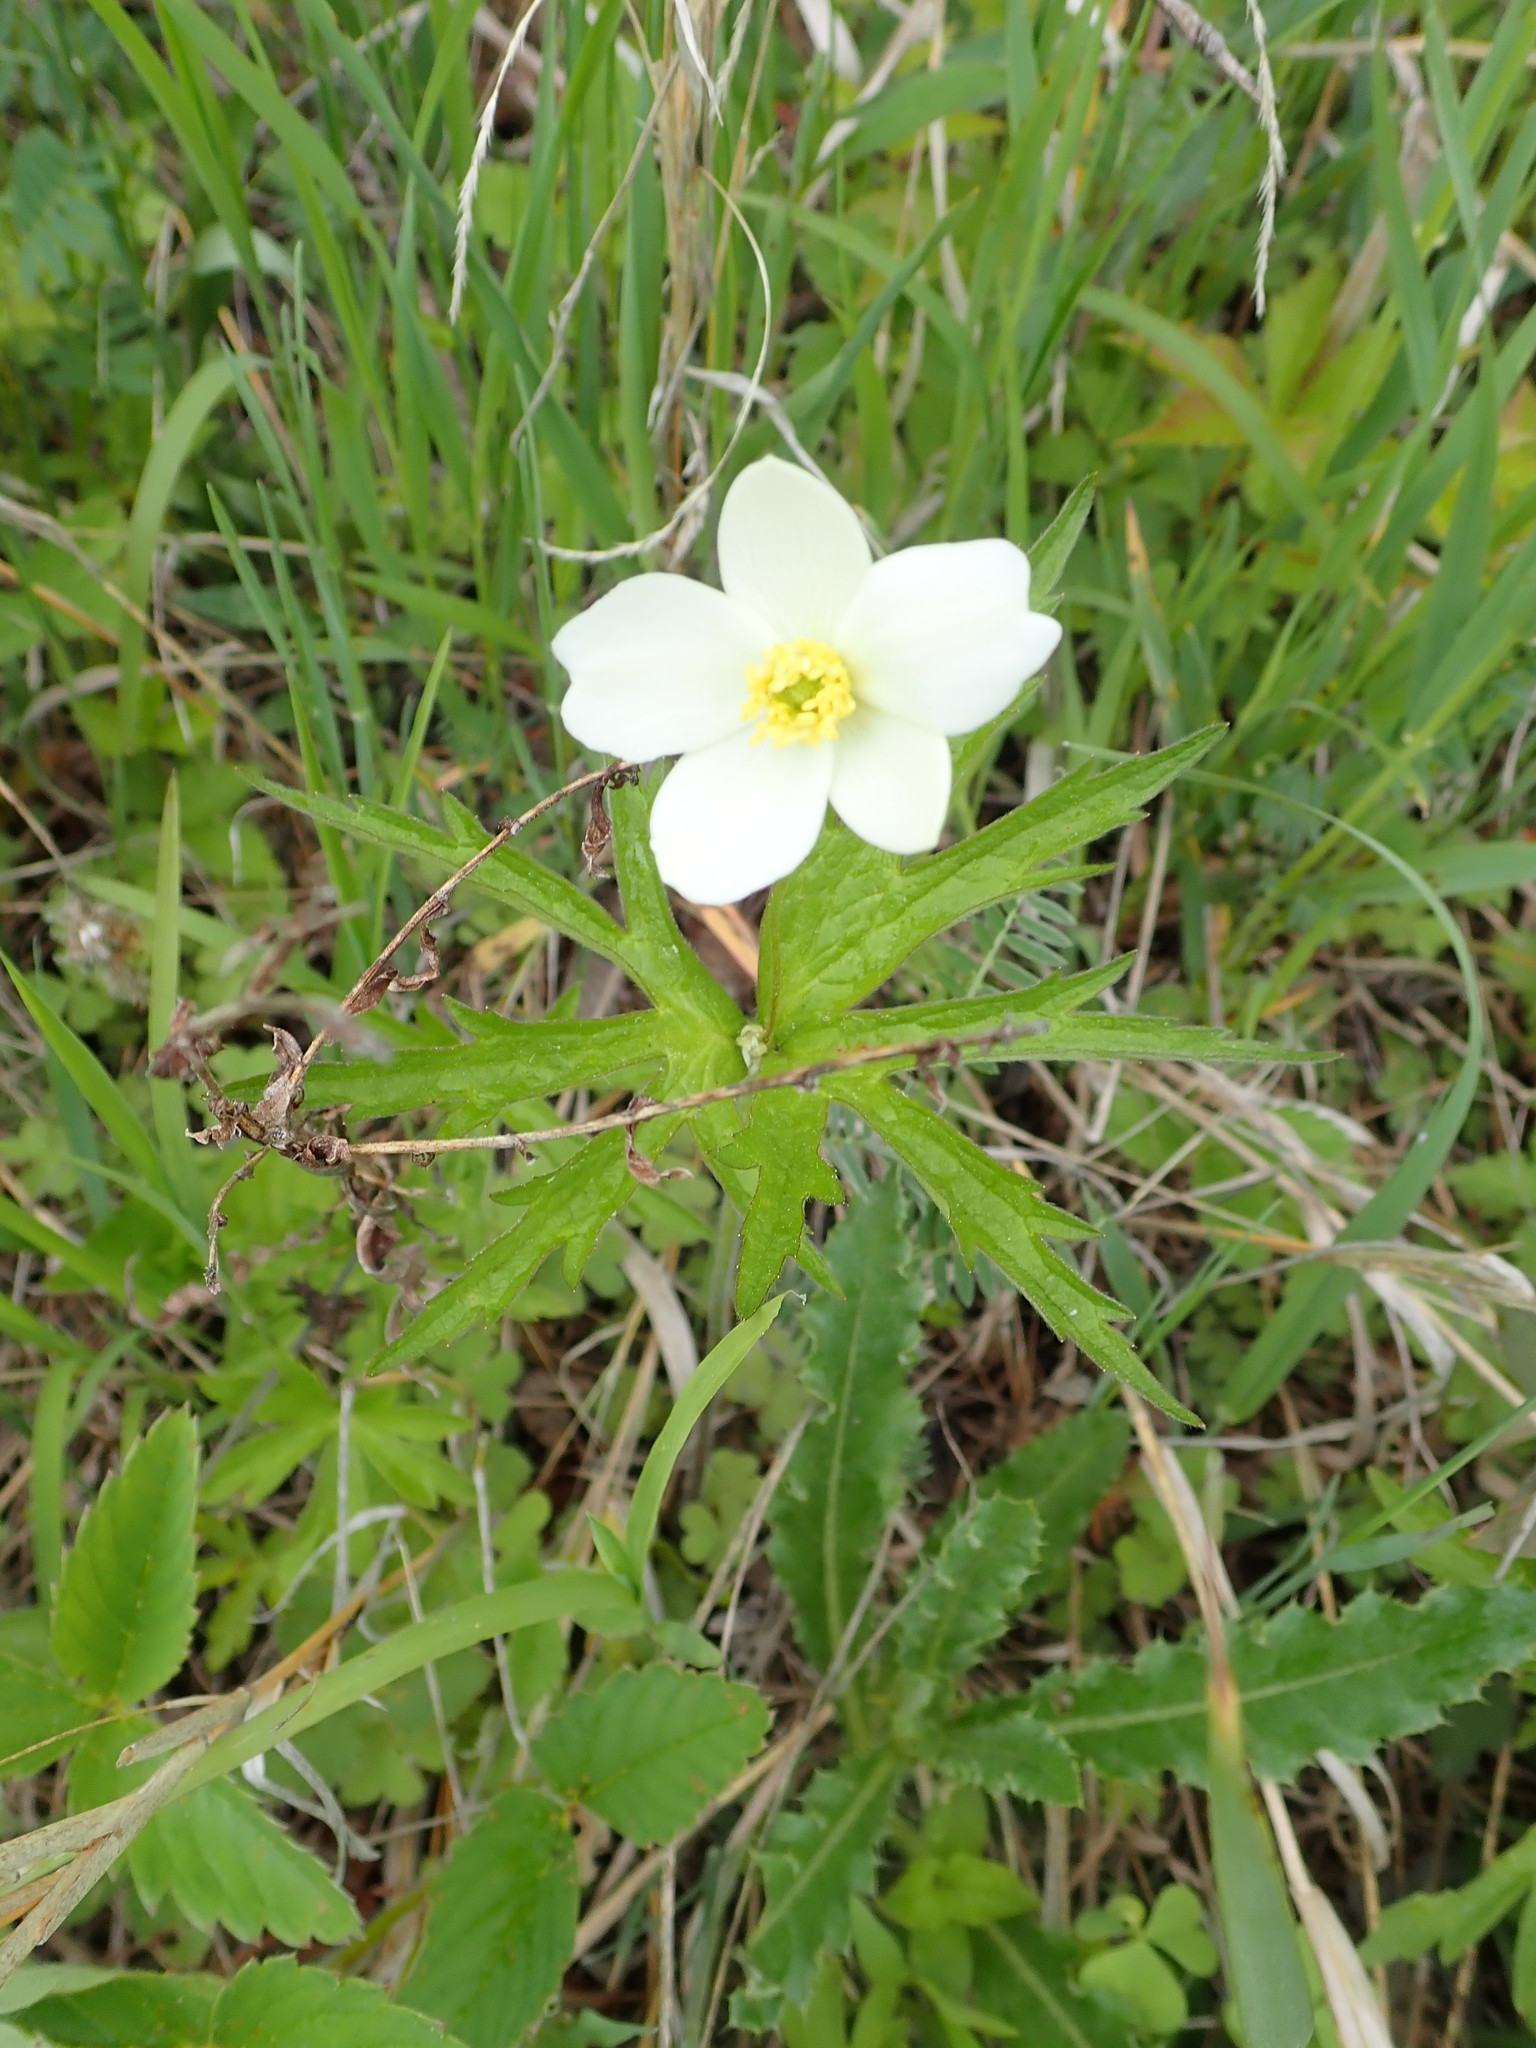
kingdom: Plantae
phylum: Tracheophyta
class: Magnoliopsida
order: Ranunculales
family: Ranunculaceae
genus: Anemonastrum
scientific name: Anemonastrum canadense
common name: Canada anemone
